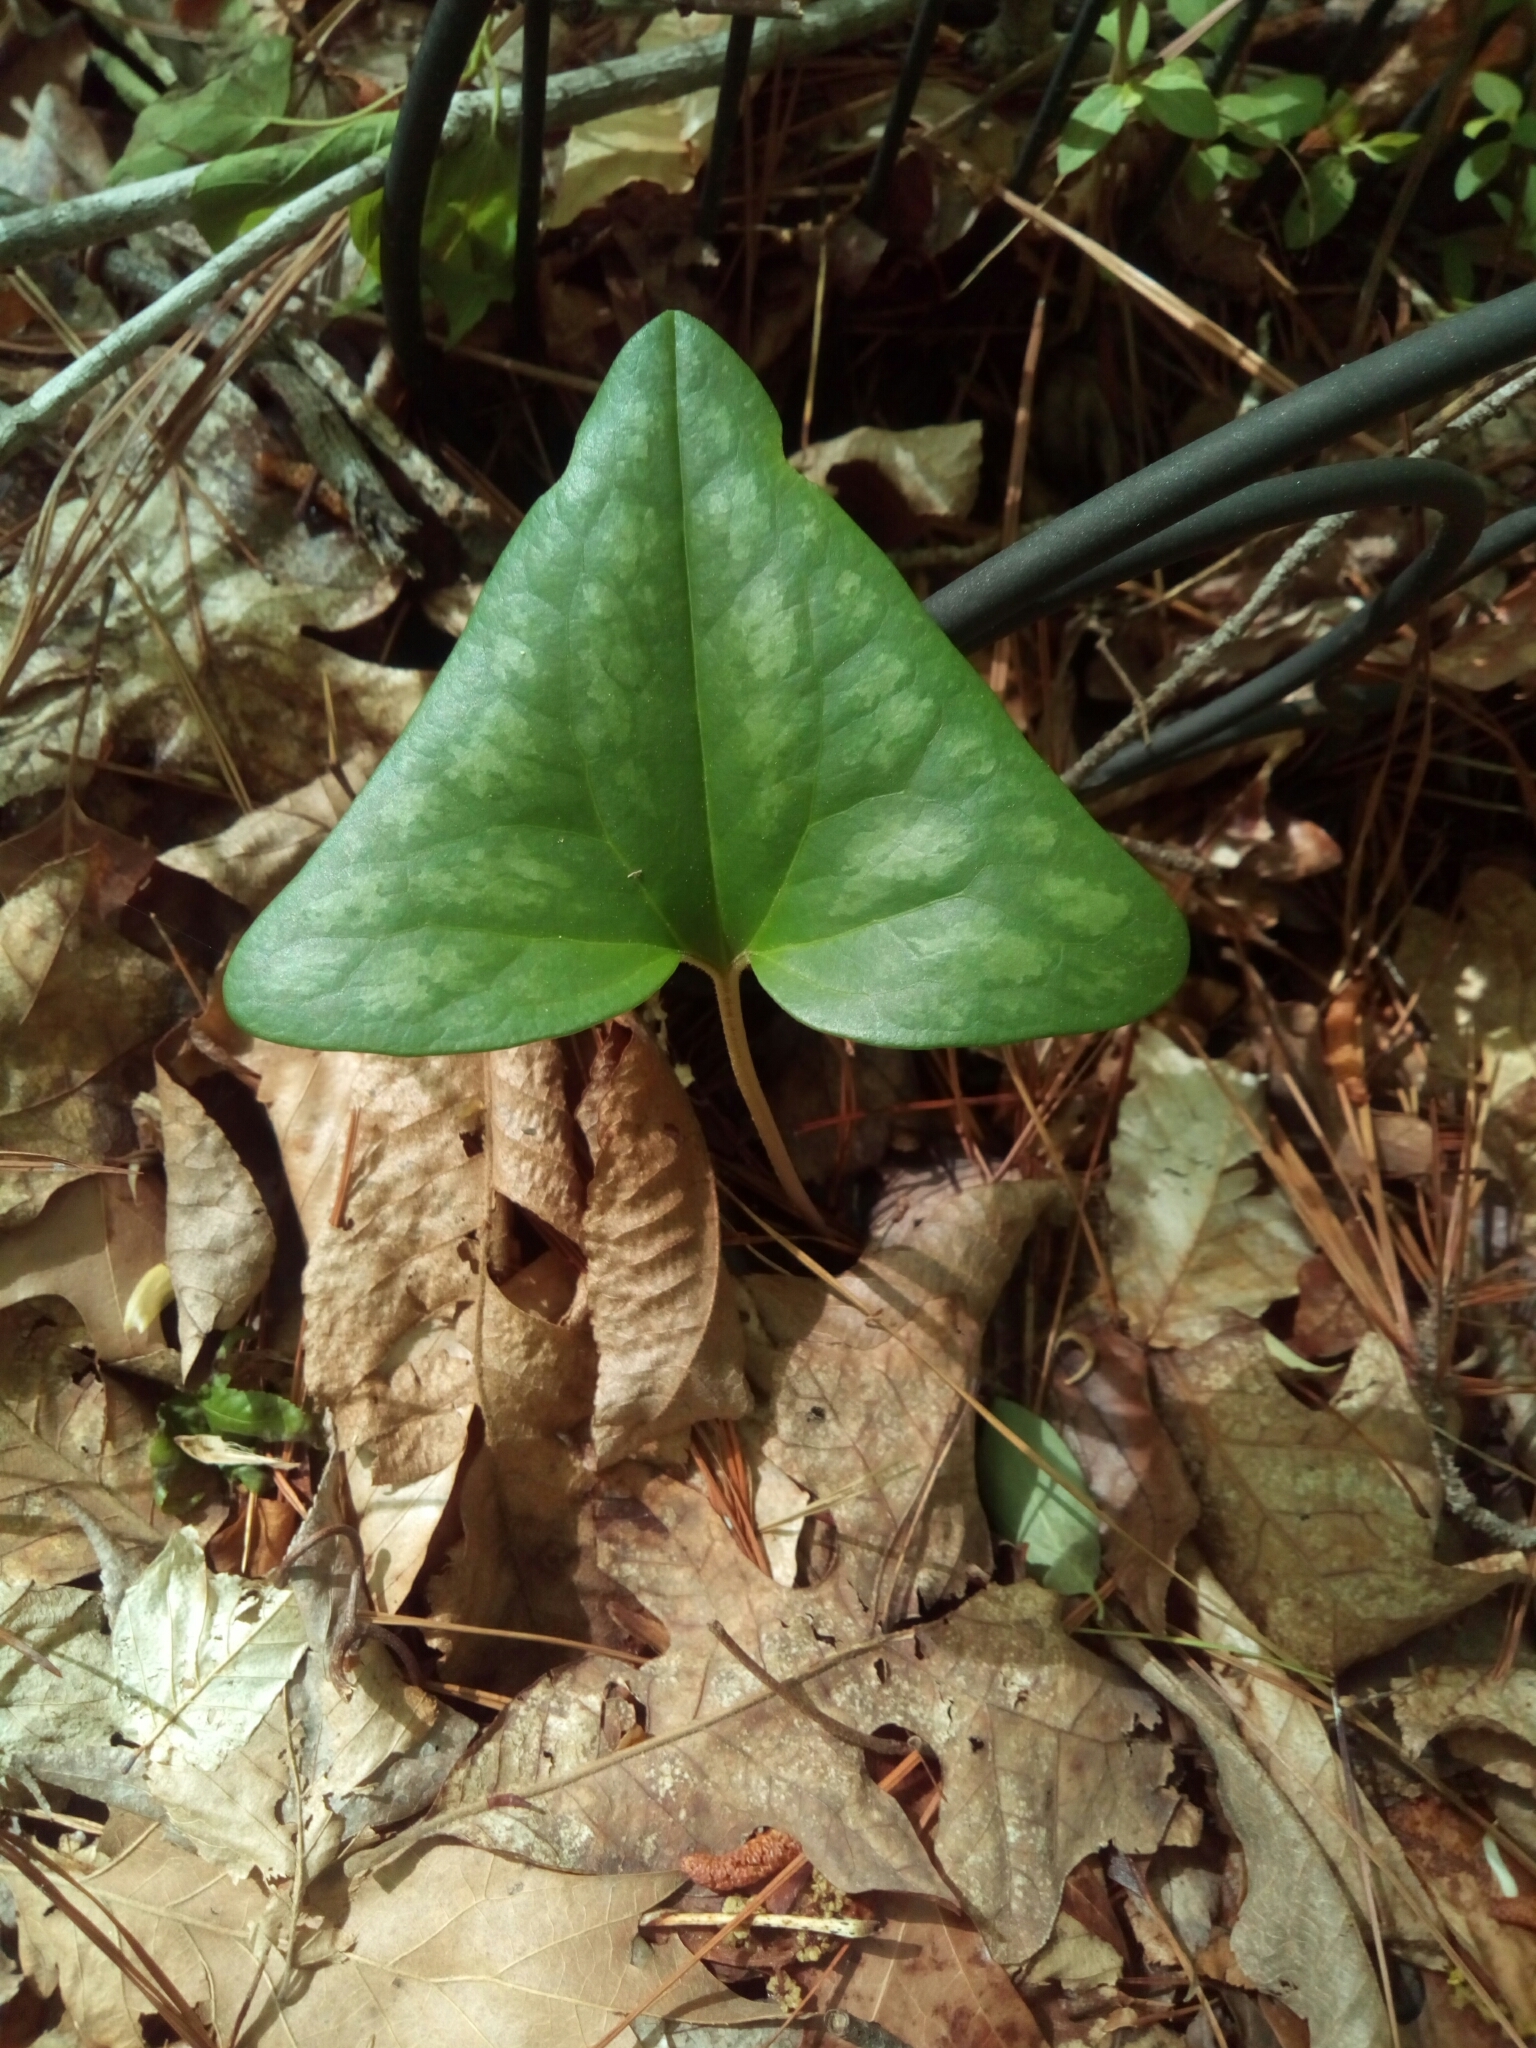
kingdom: Plantae
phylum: Tracheophyta
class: Magnoliopsida
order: Piperales
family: Aristolochiaceae
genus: Hexastylis
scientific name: Hexastylis arifolia
